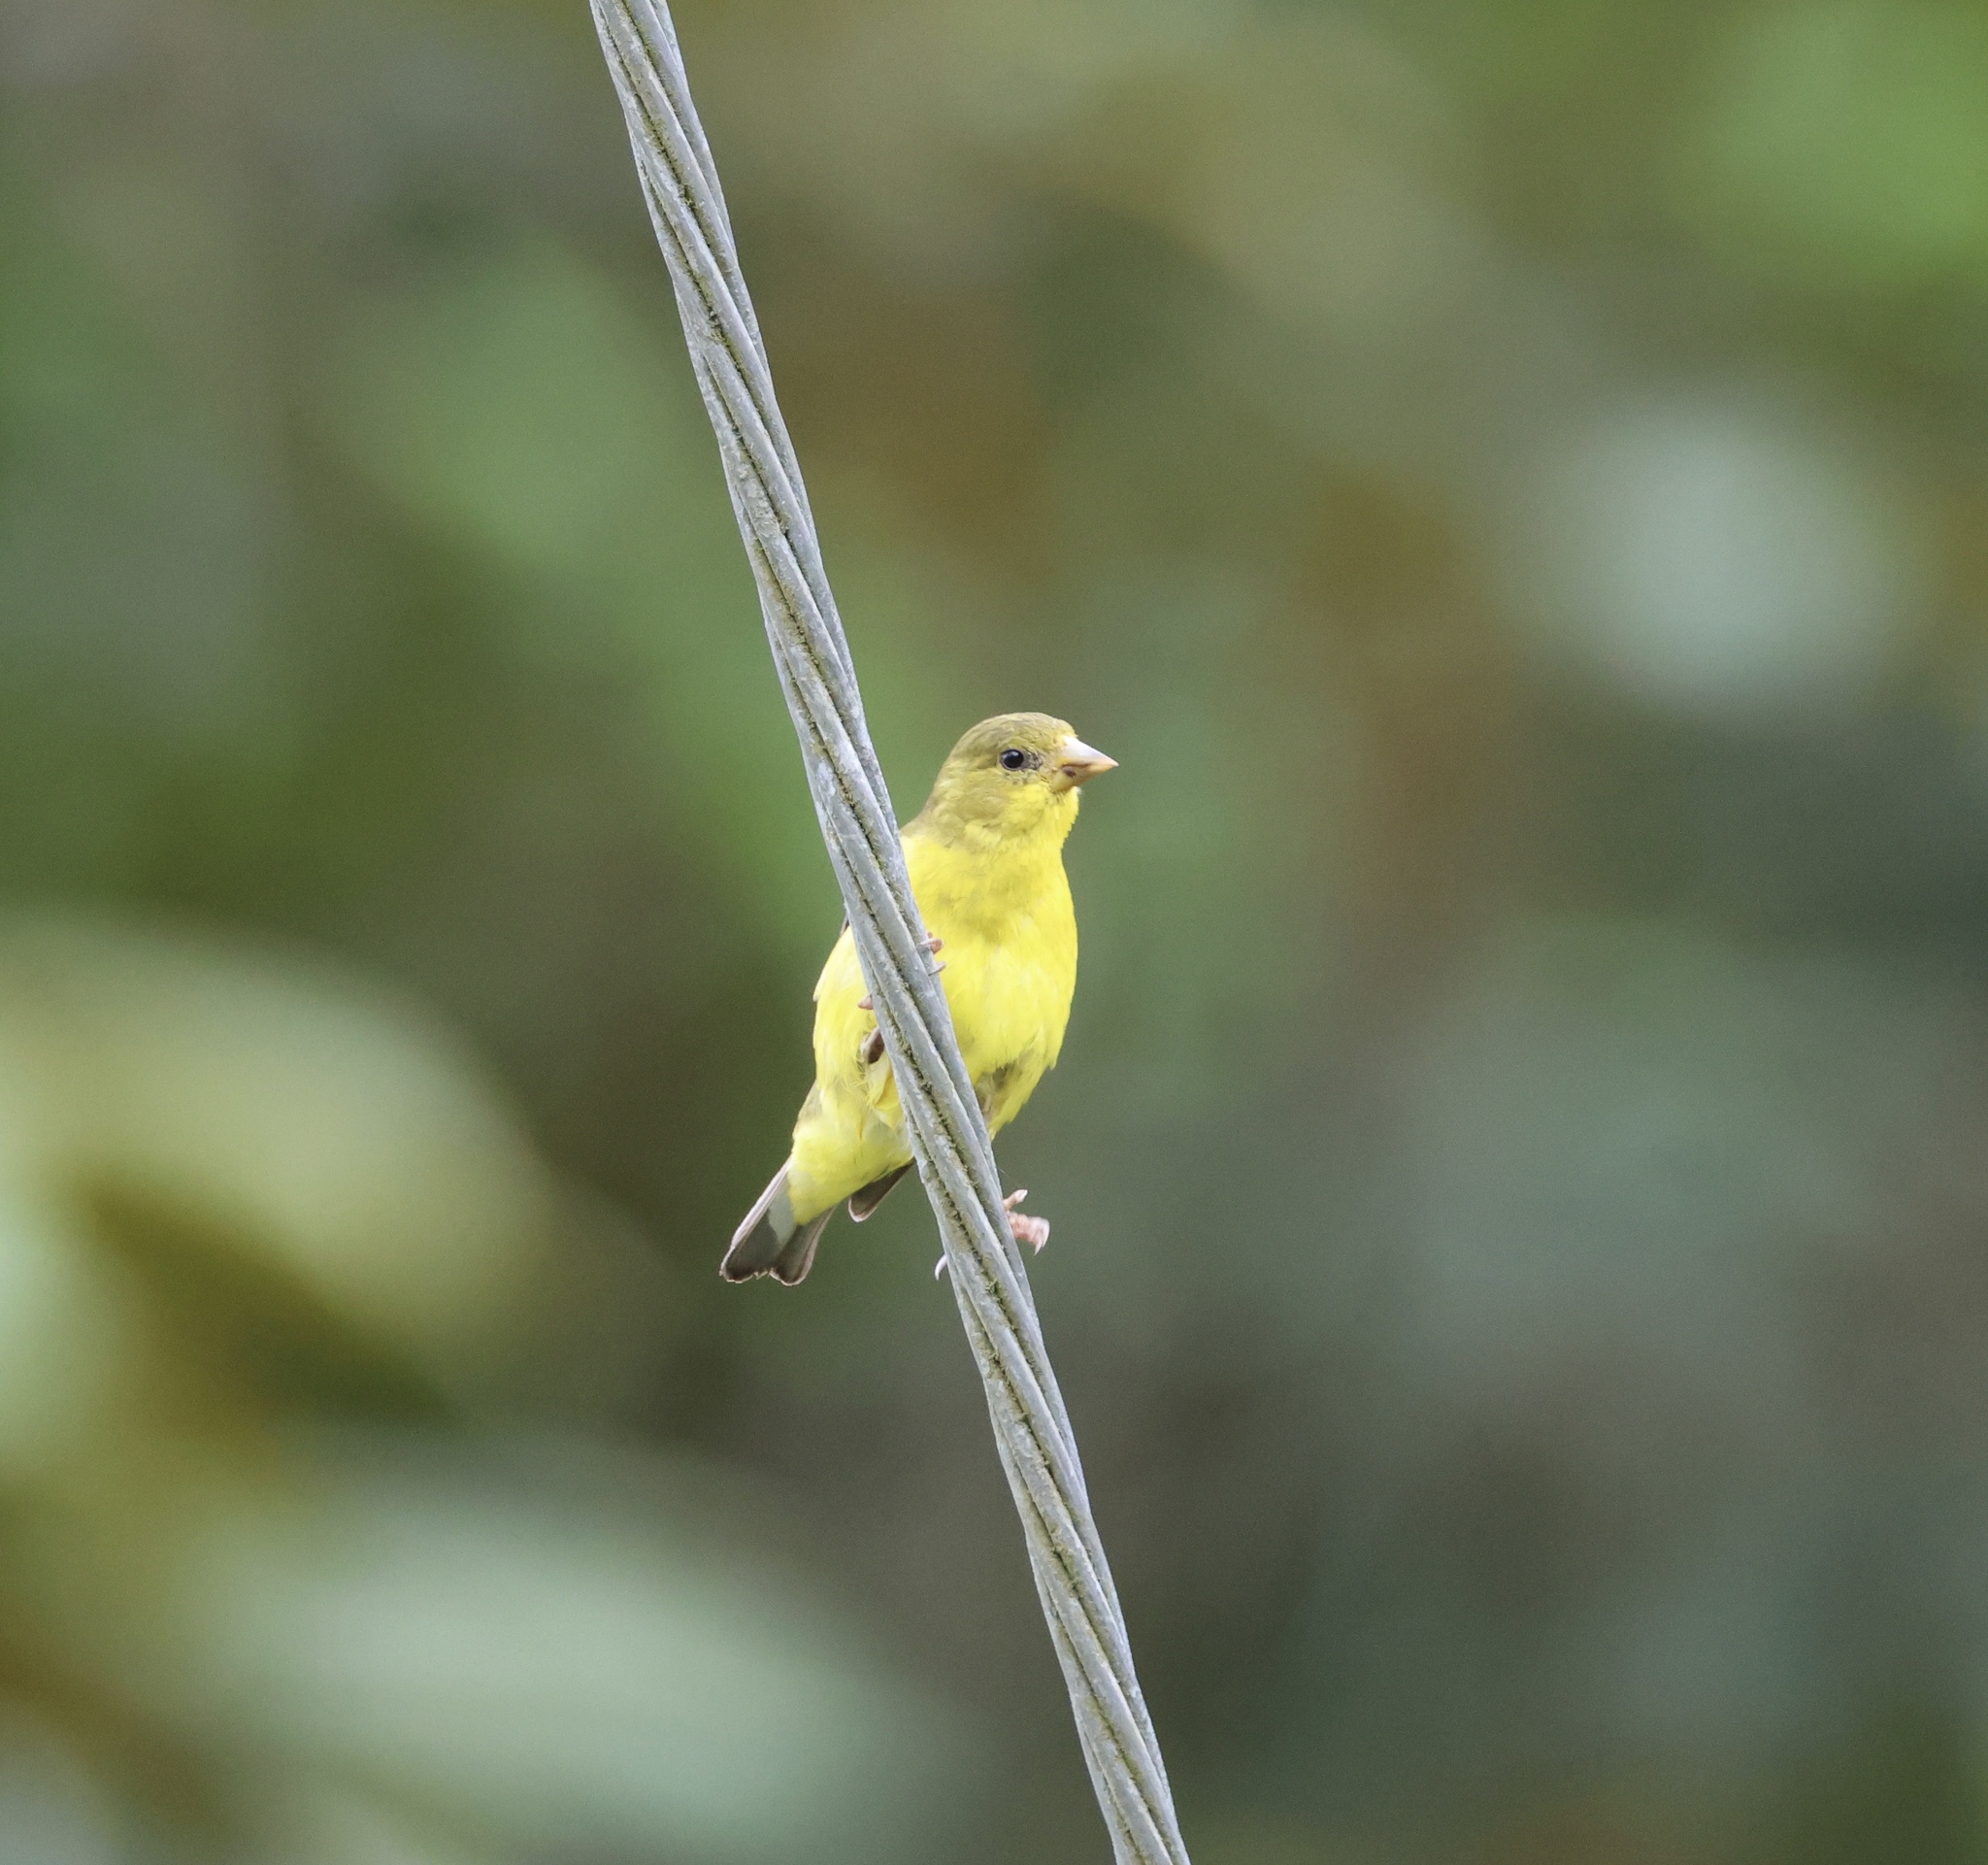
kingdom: Animalia
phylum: Chordata
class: Aves
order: Passeriformes
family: Fringillidae
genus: Spinus
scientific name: Spinus psaltria
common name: Lesser goldfinch
